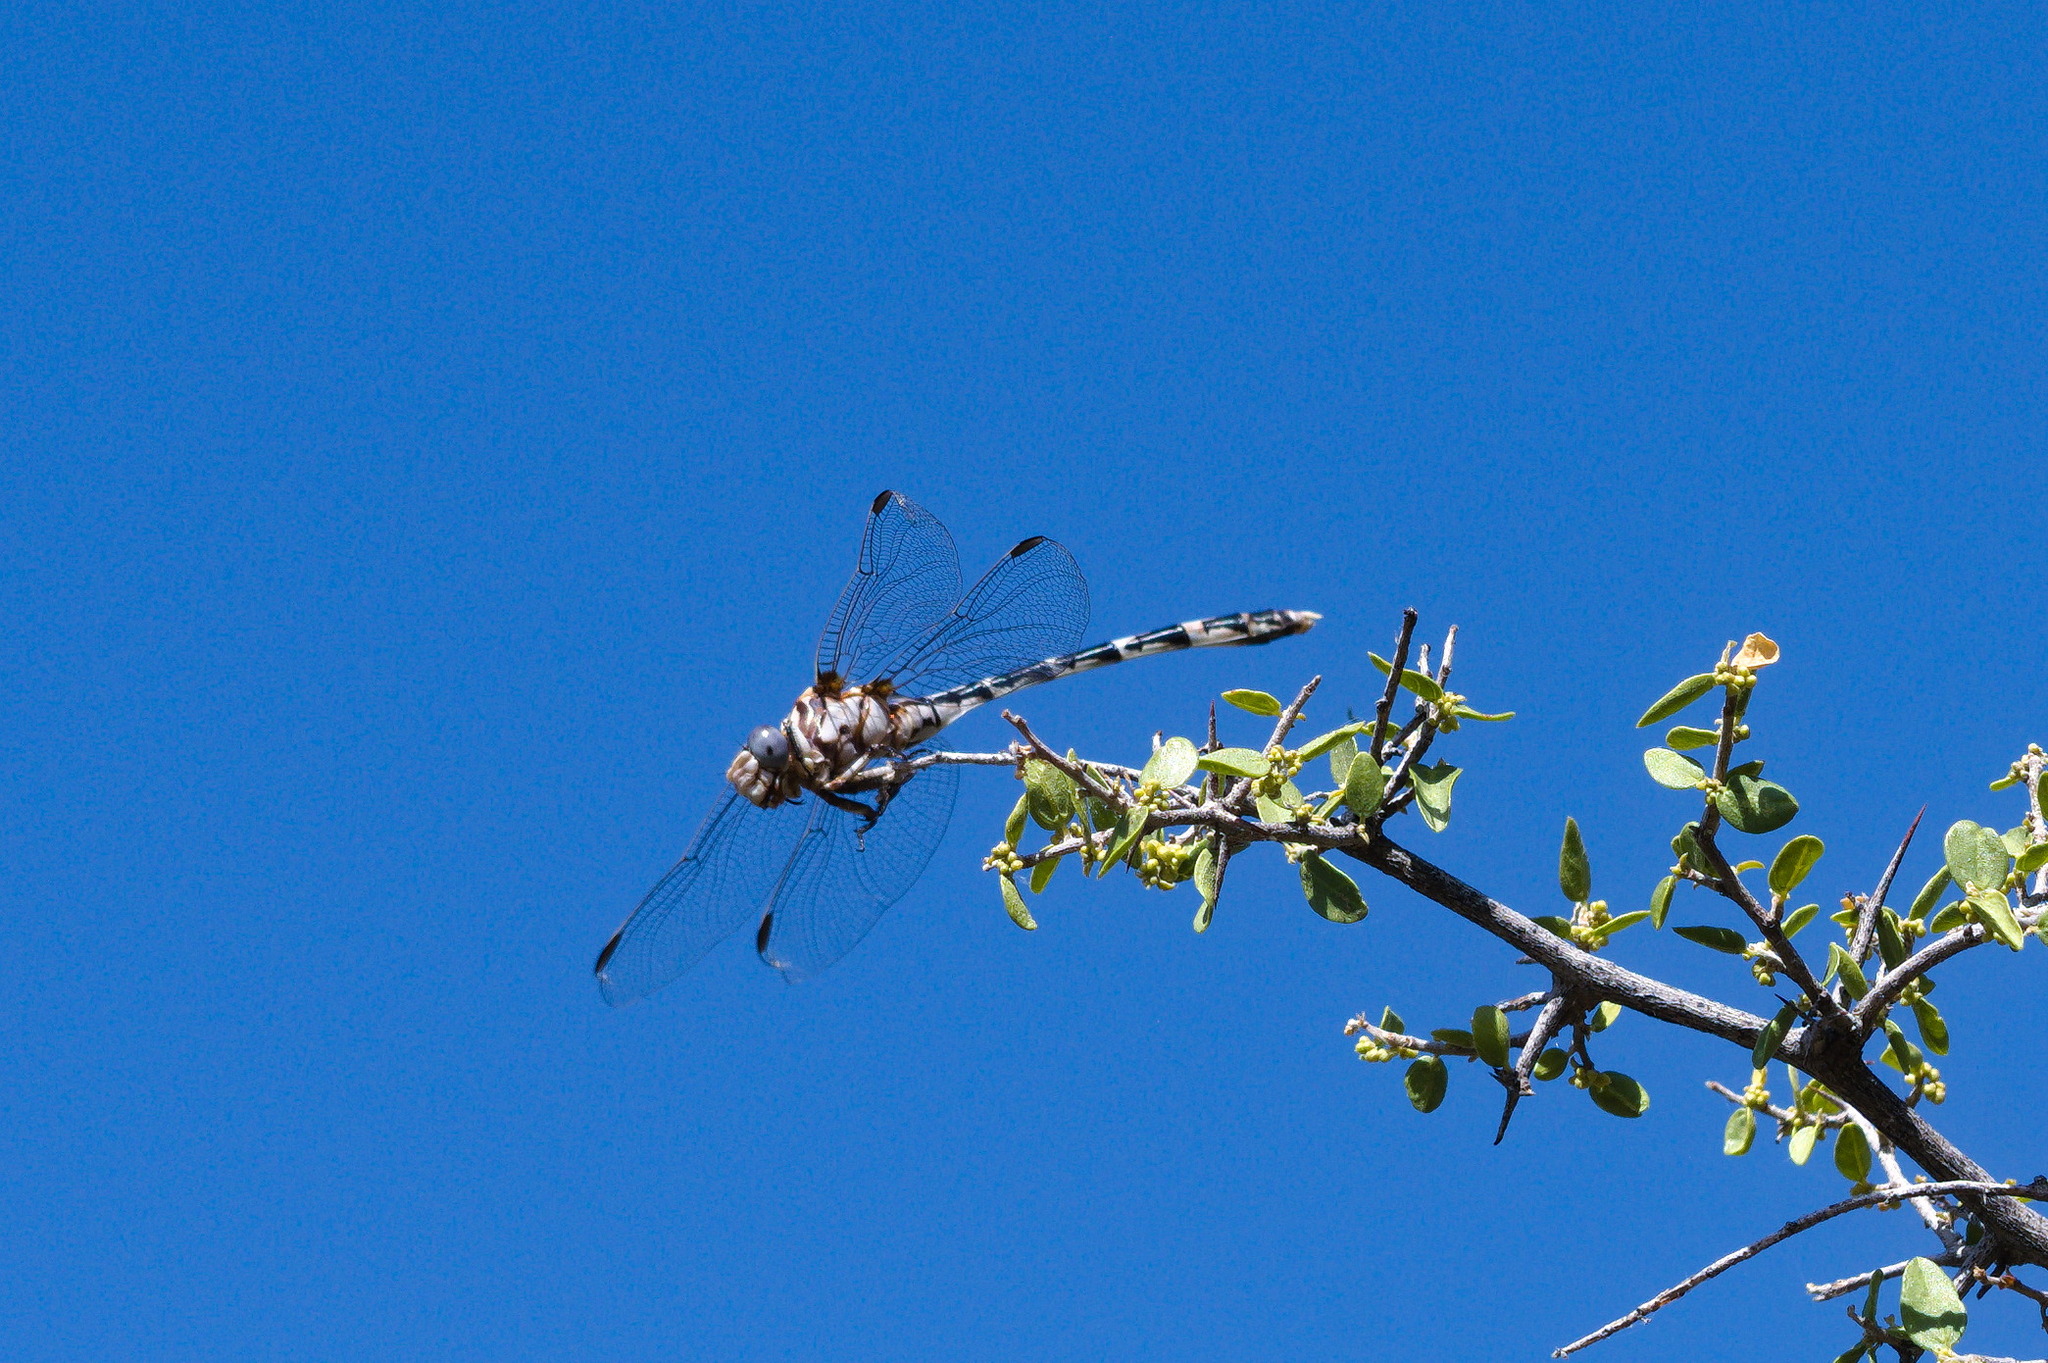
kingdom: Animalia
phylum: Arthropoda
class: Insecta
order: Odonata
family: Gomphidae
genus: Progomphus
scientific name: Progomphus borealis
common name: Gray sanddragon
